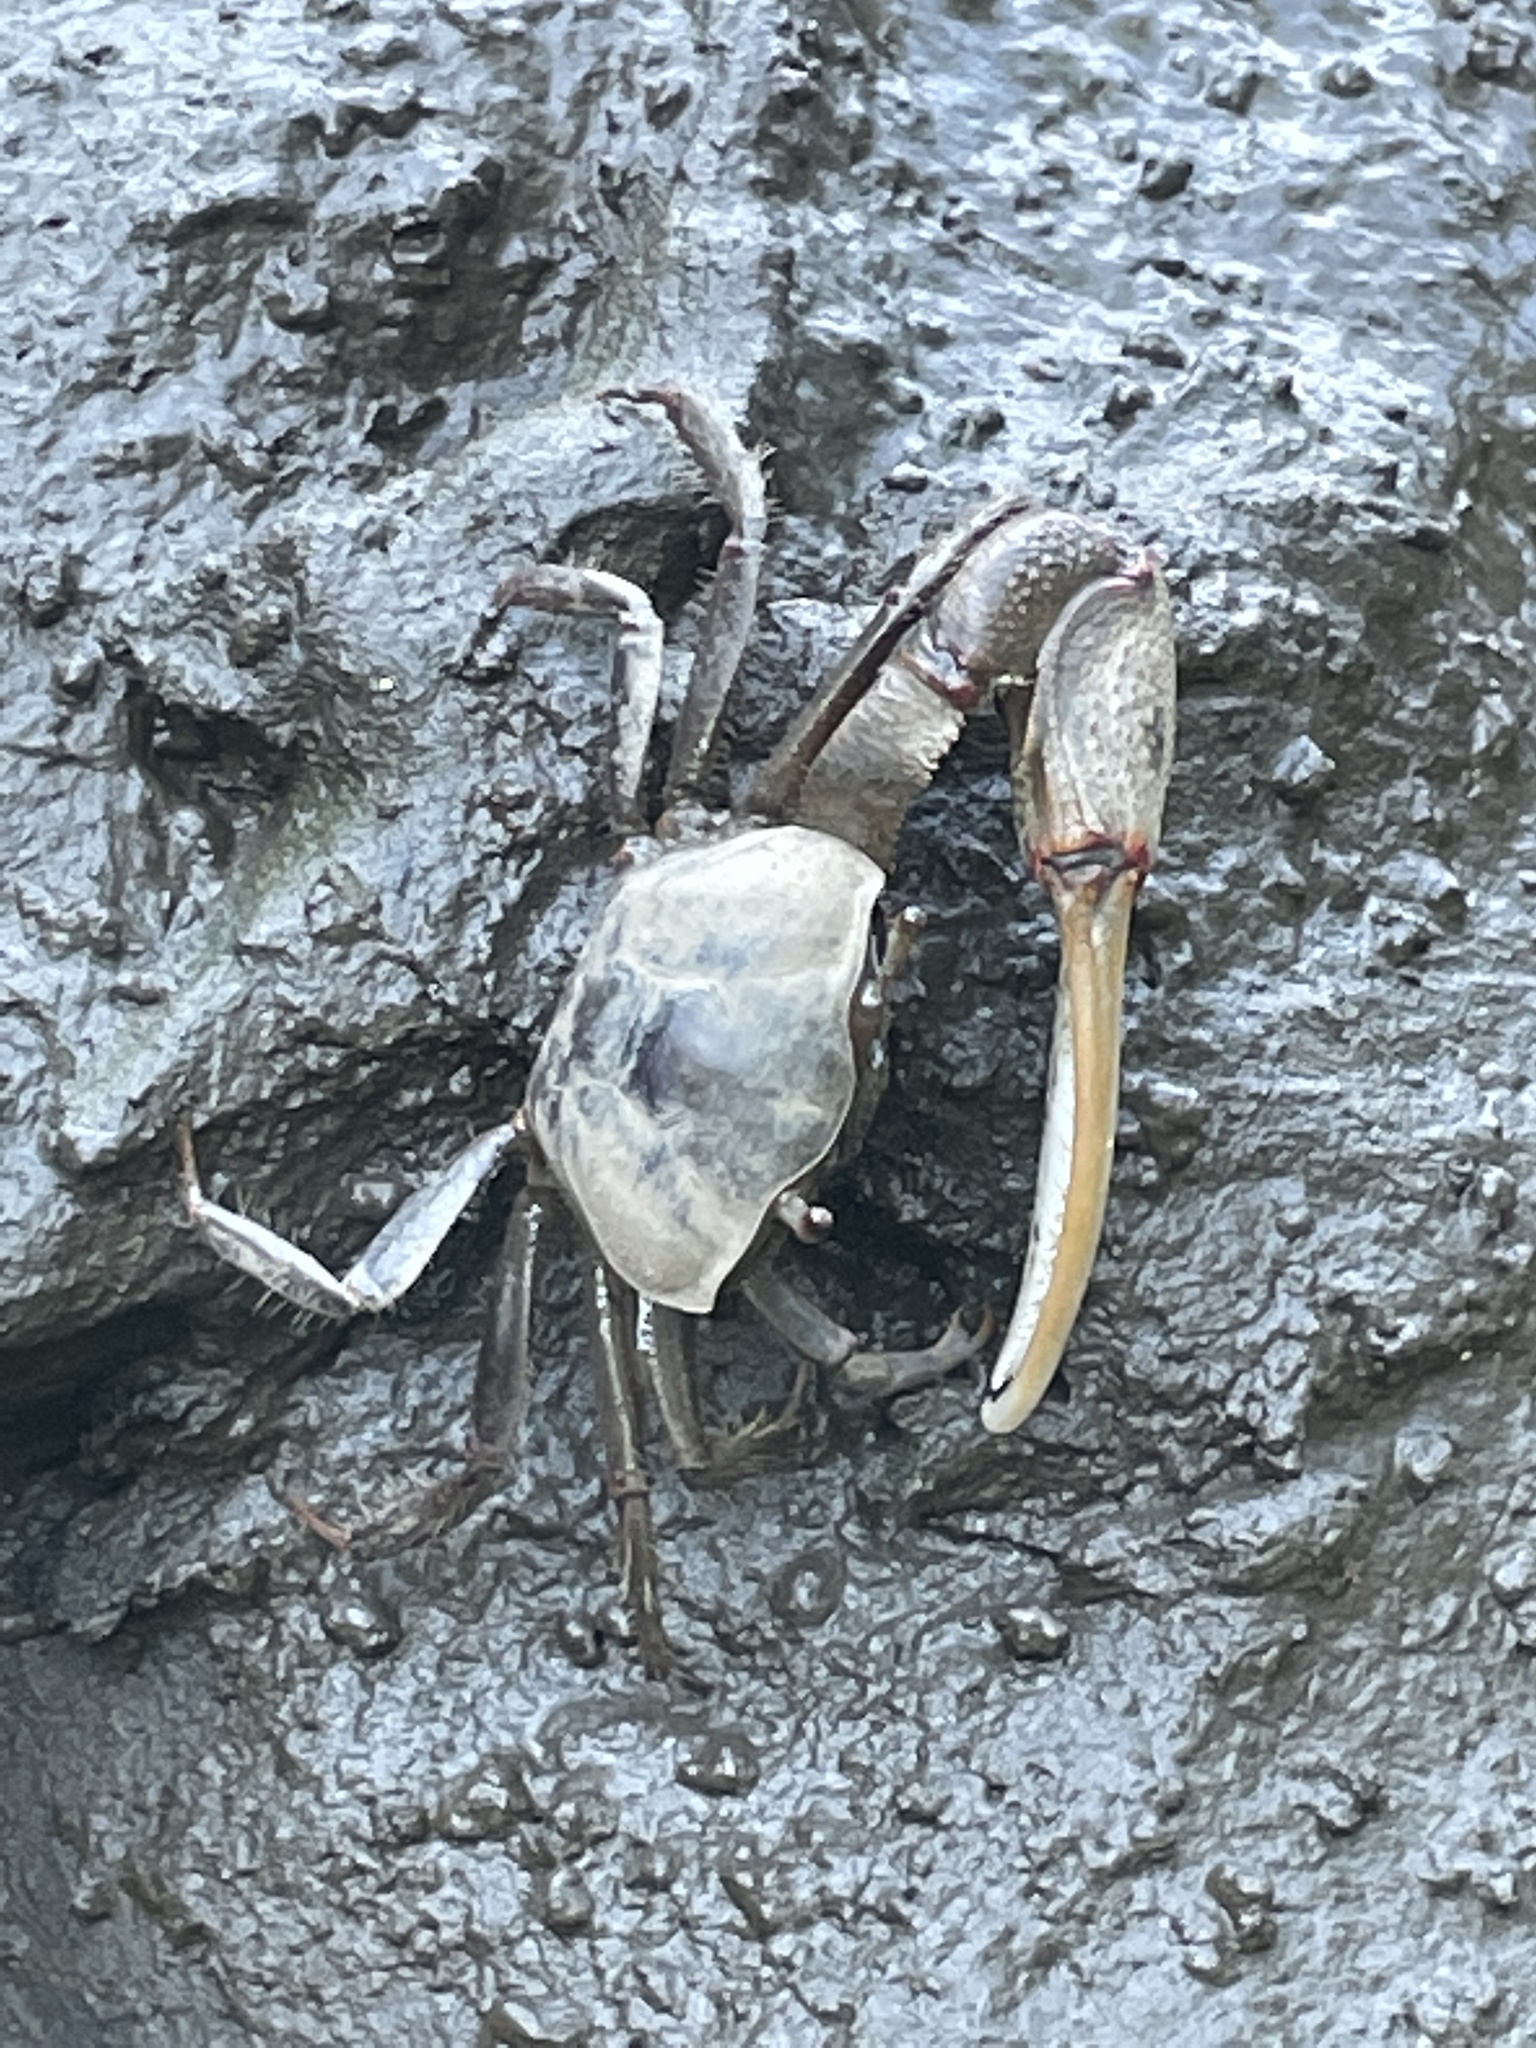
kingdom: Animalia
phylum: Arthropoda
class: Malacostraca
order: Decapoda
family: Ocypodidae
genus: Minuca
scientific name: Minuca minax
